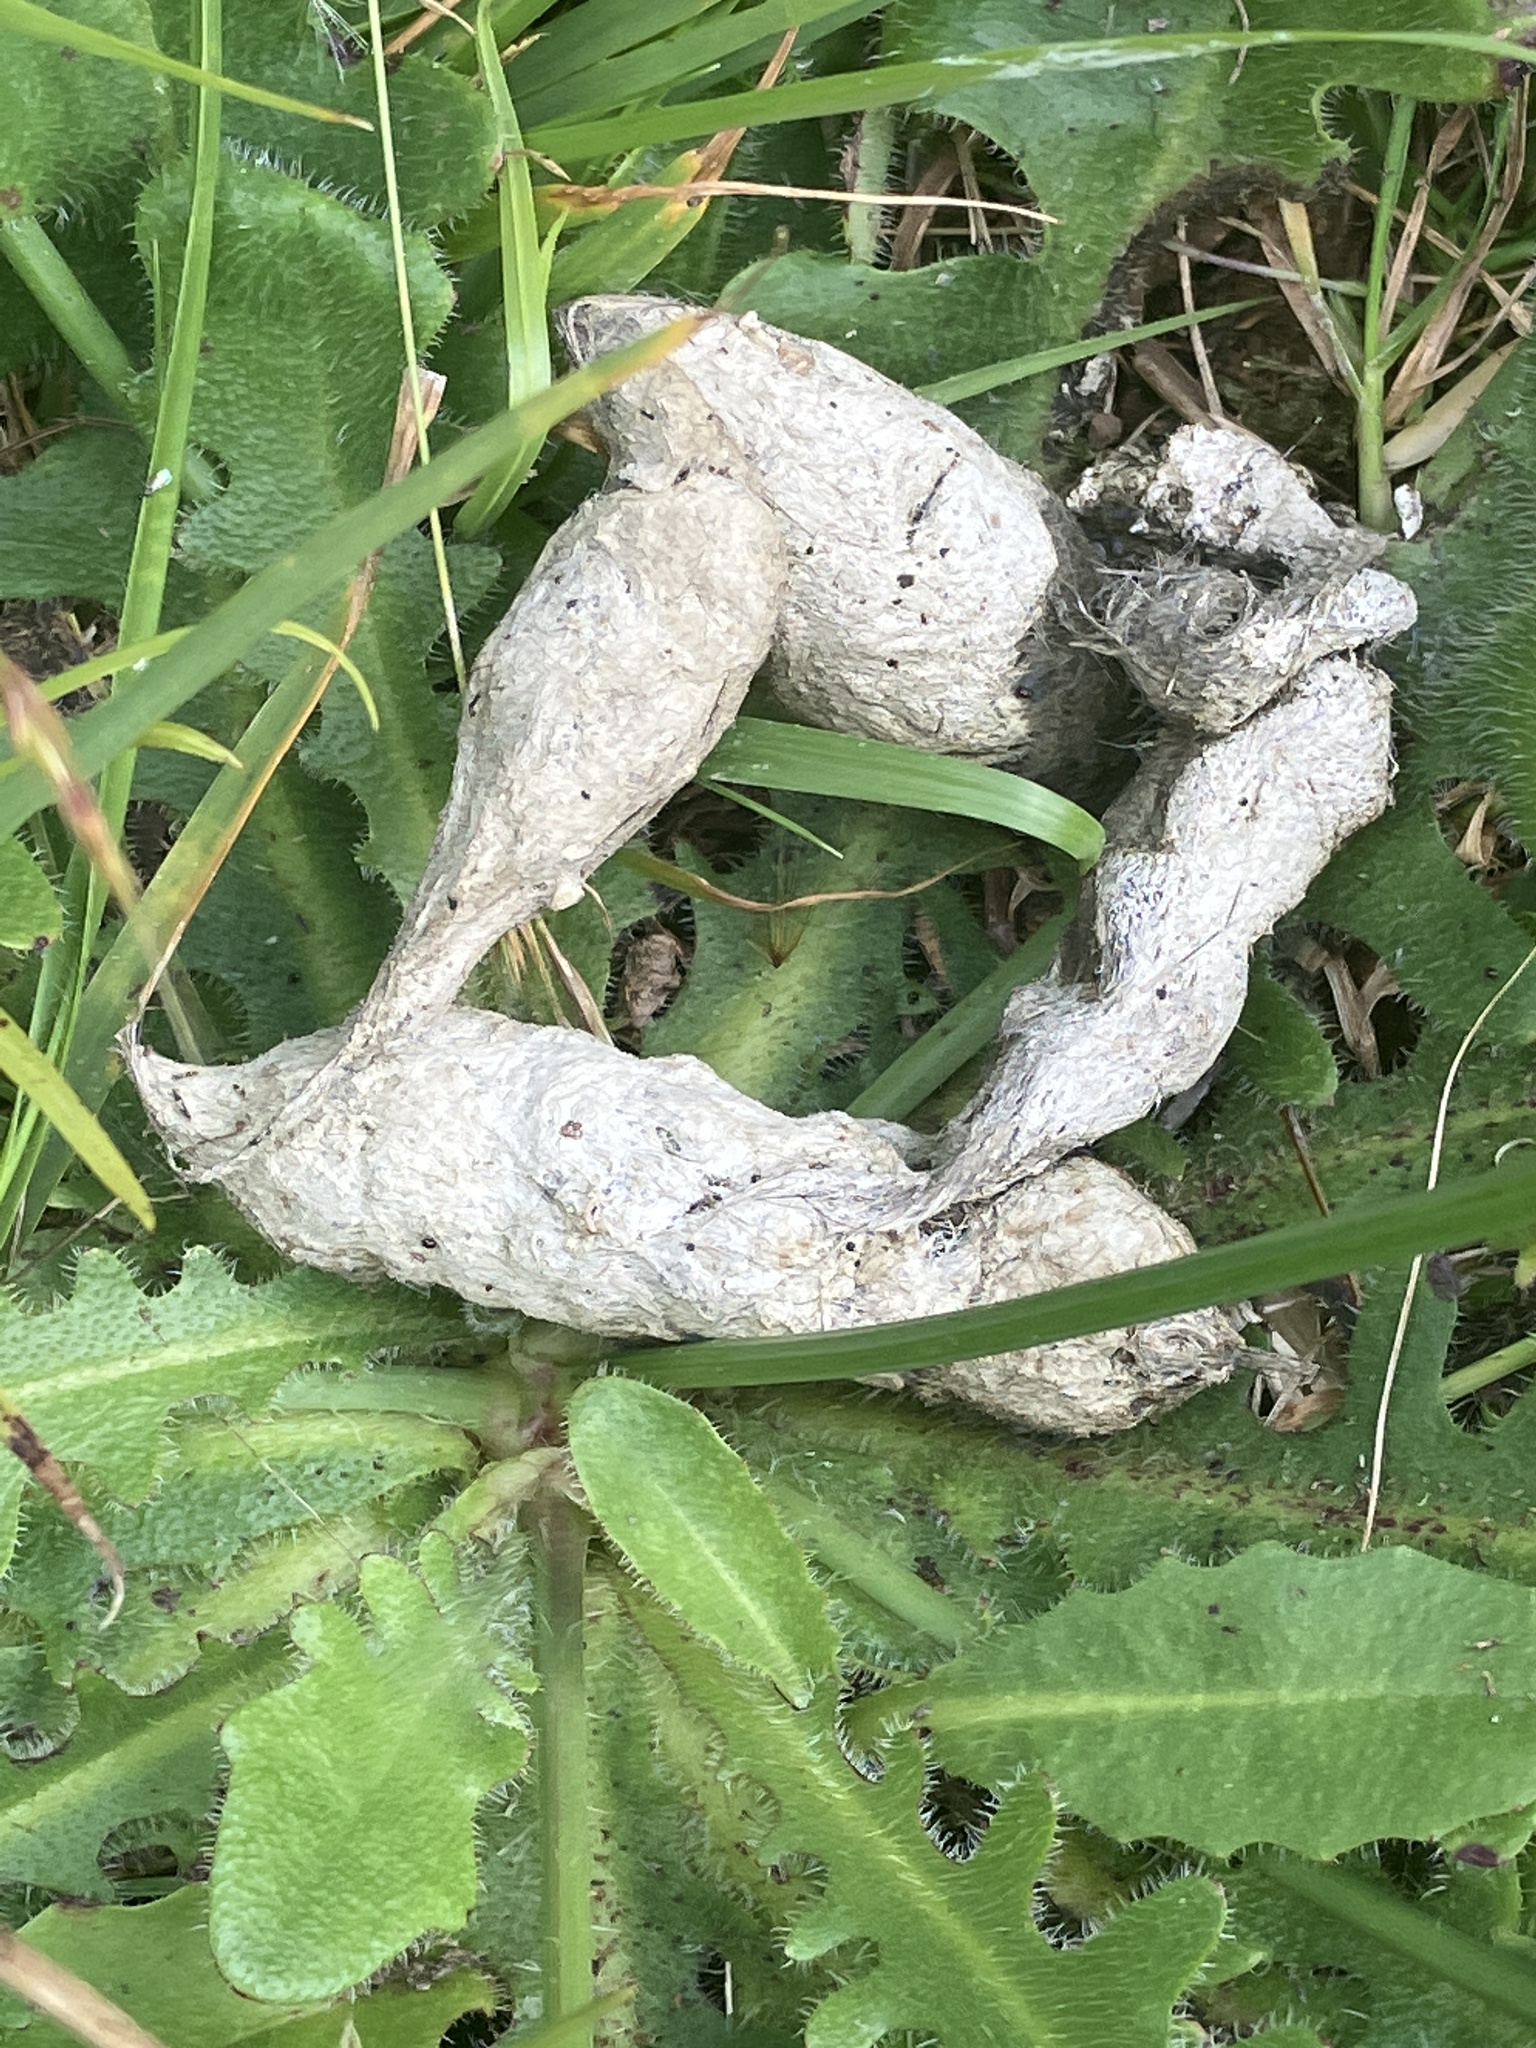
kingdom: Animalia
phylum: Chordata
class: Mammalia
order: Carnivora
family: Felidae
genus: Felis
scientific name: Felis catus
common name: Domestic cat
